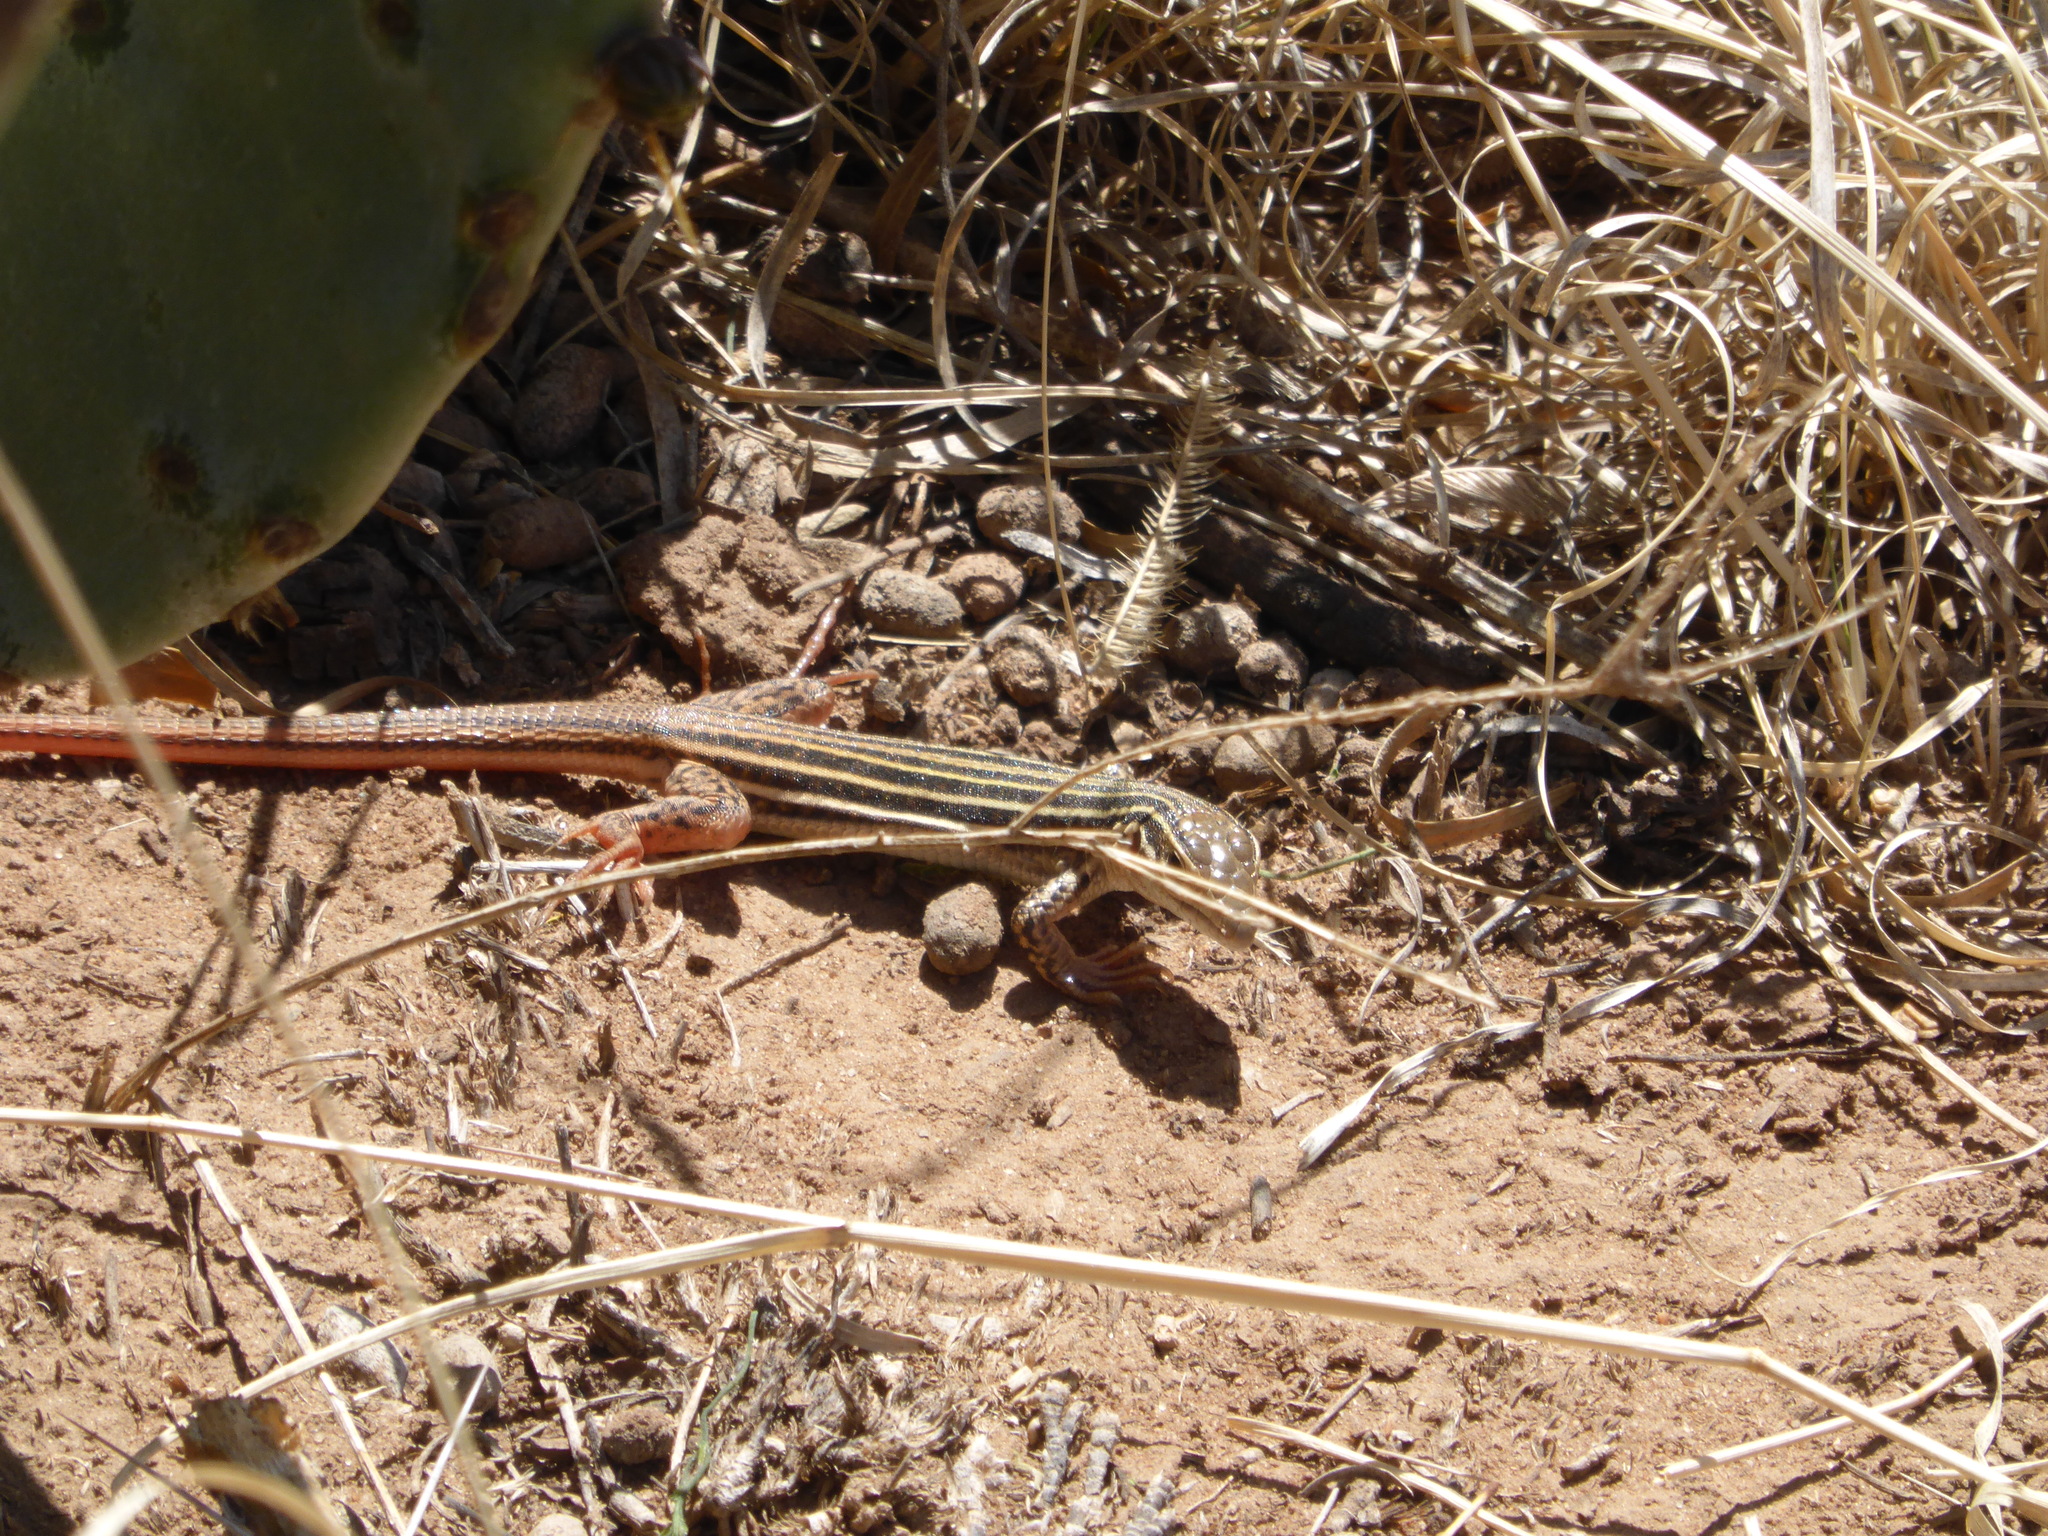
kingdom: Animalia
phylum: Chordata
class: Squamata
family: Teiidae
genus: Aspidoscelis
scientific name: Aspidoscelis gularis
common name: Eastern spotted whiptail
